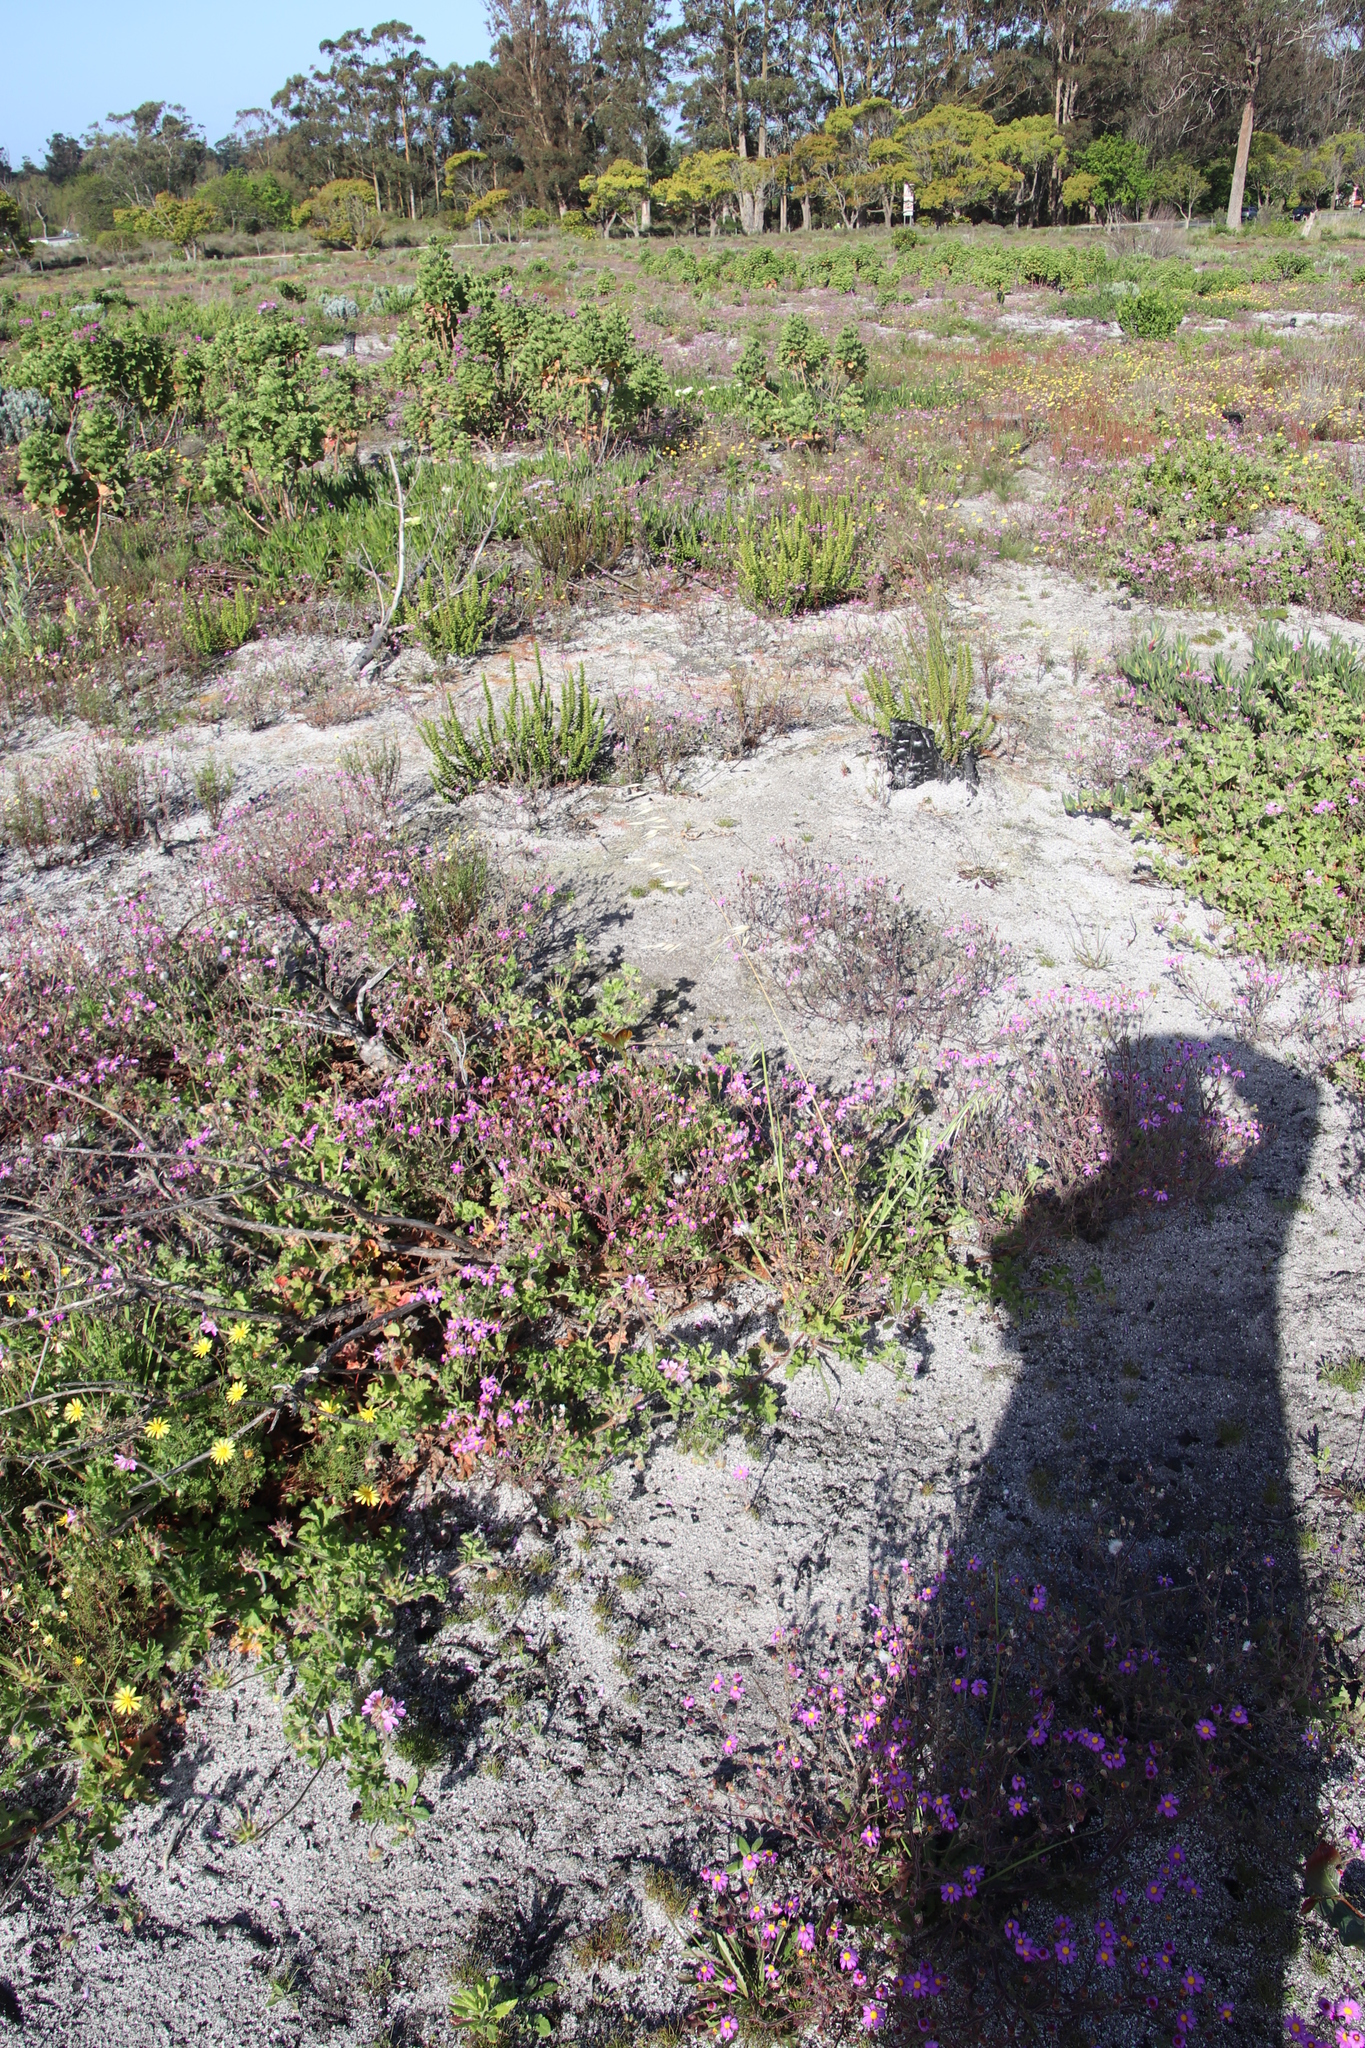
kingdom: Plantae
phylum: Tracheophyta
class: Magnoliopsida
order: Lamiales
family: Scrophulariaceae
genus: Pseudoselago
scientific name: Pseudoselago spuria
